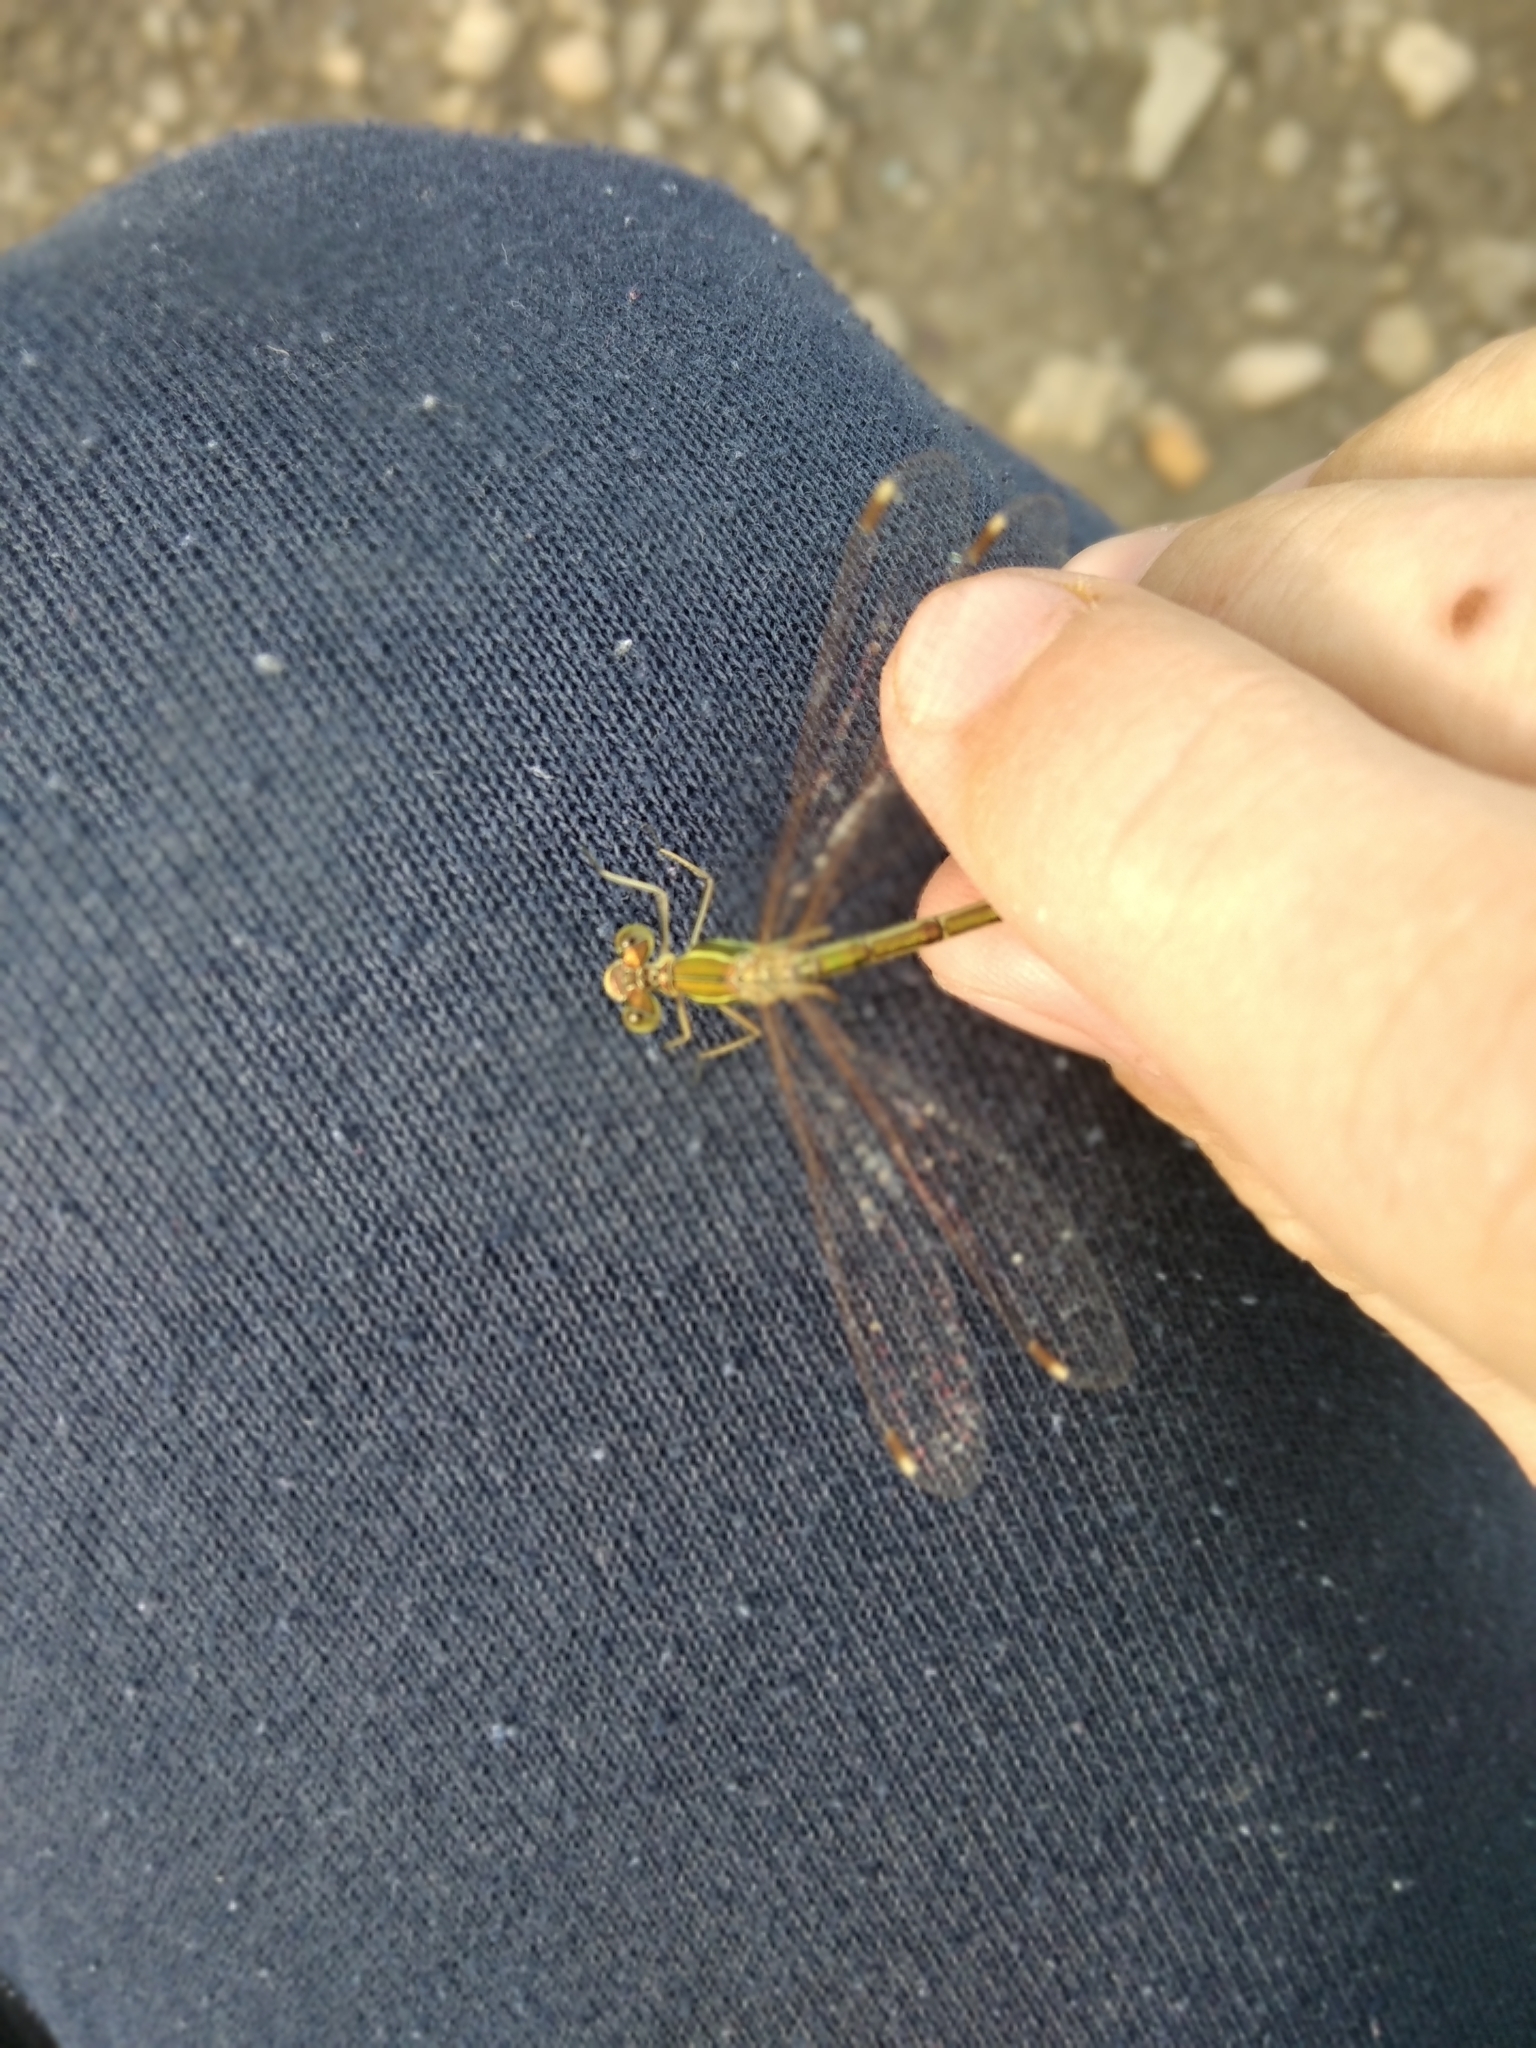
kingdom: Animalia
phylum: Arthropoda
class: Insecta
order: Odonata
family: Lestidae
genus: Lestes
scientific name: Lestes barbarus
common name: Migrant spreadwing
